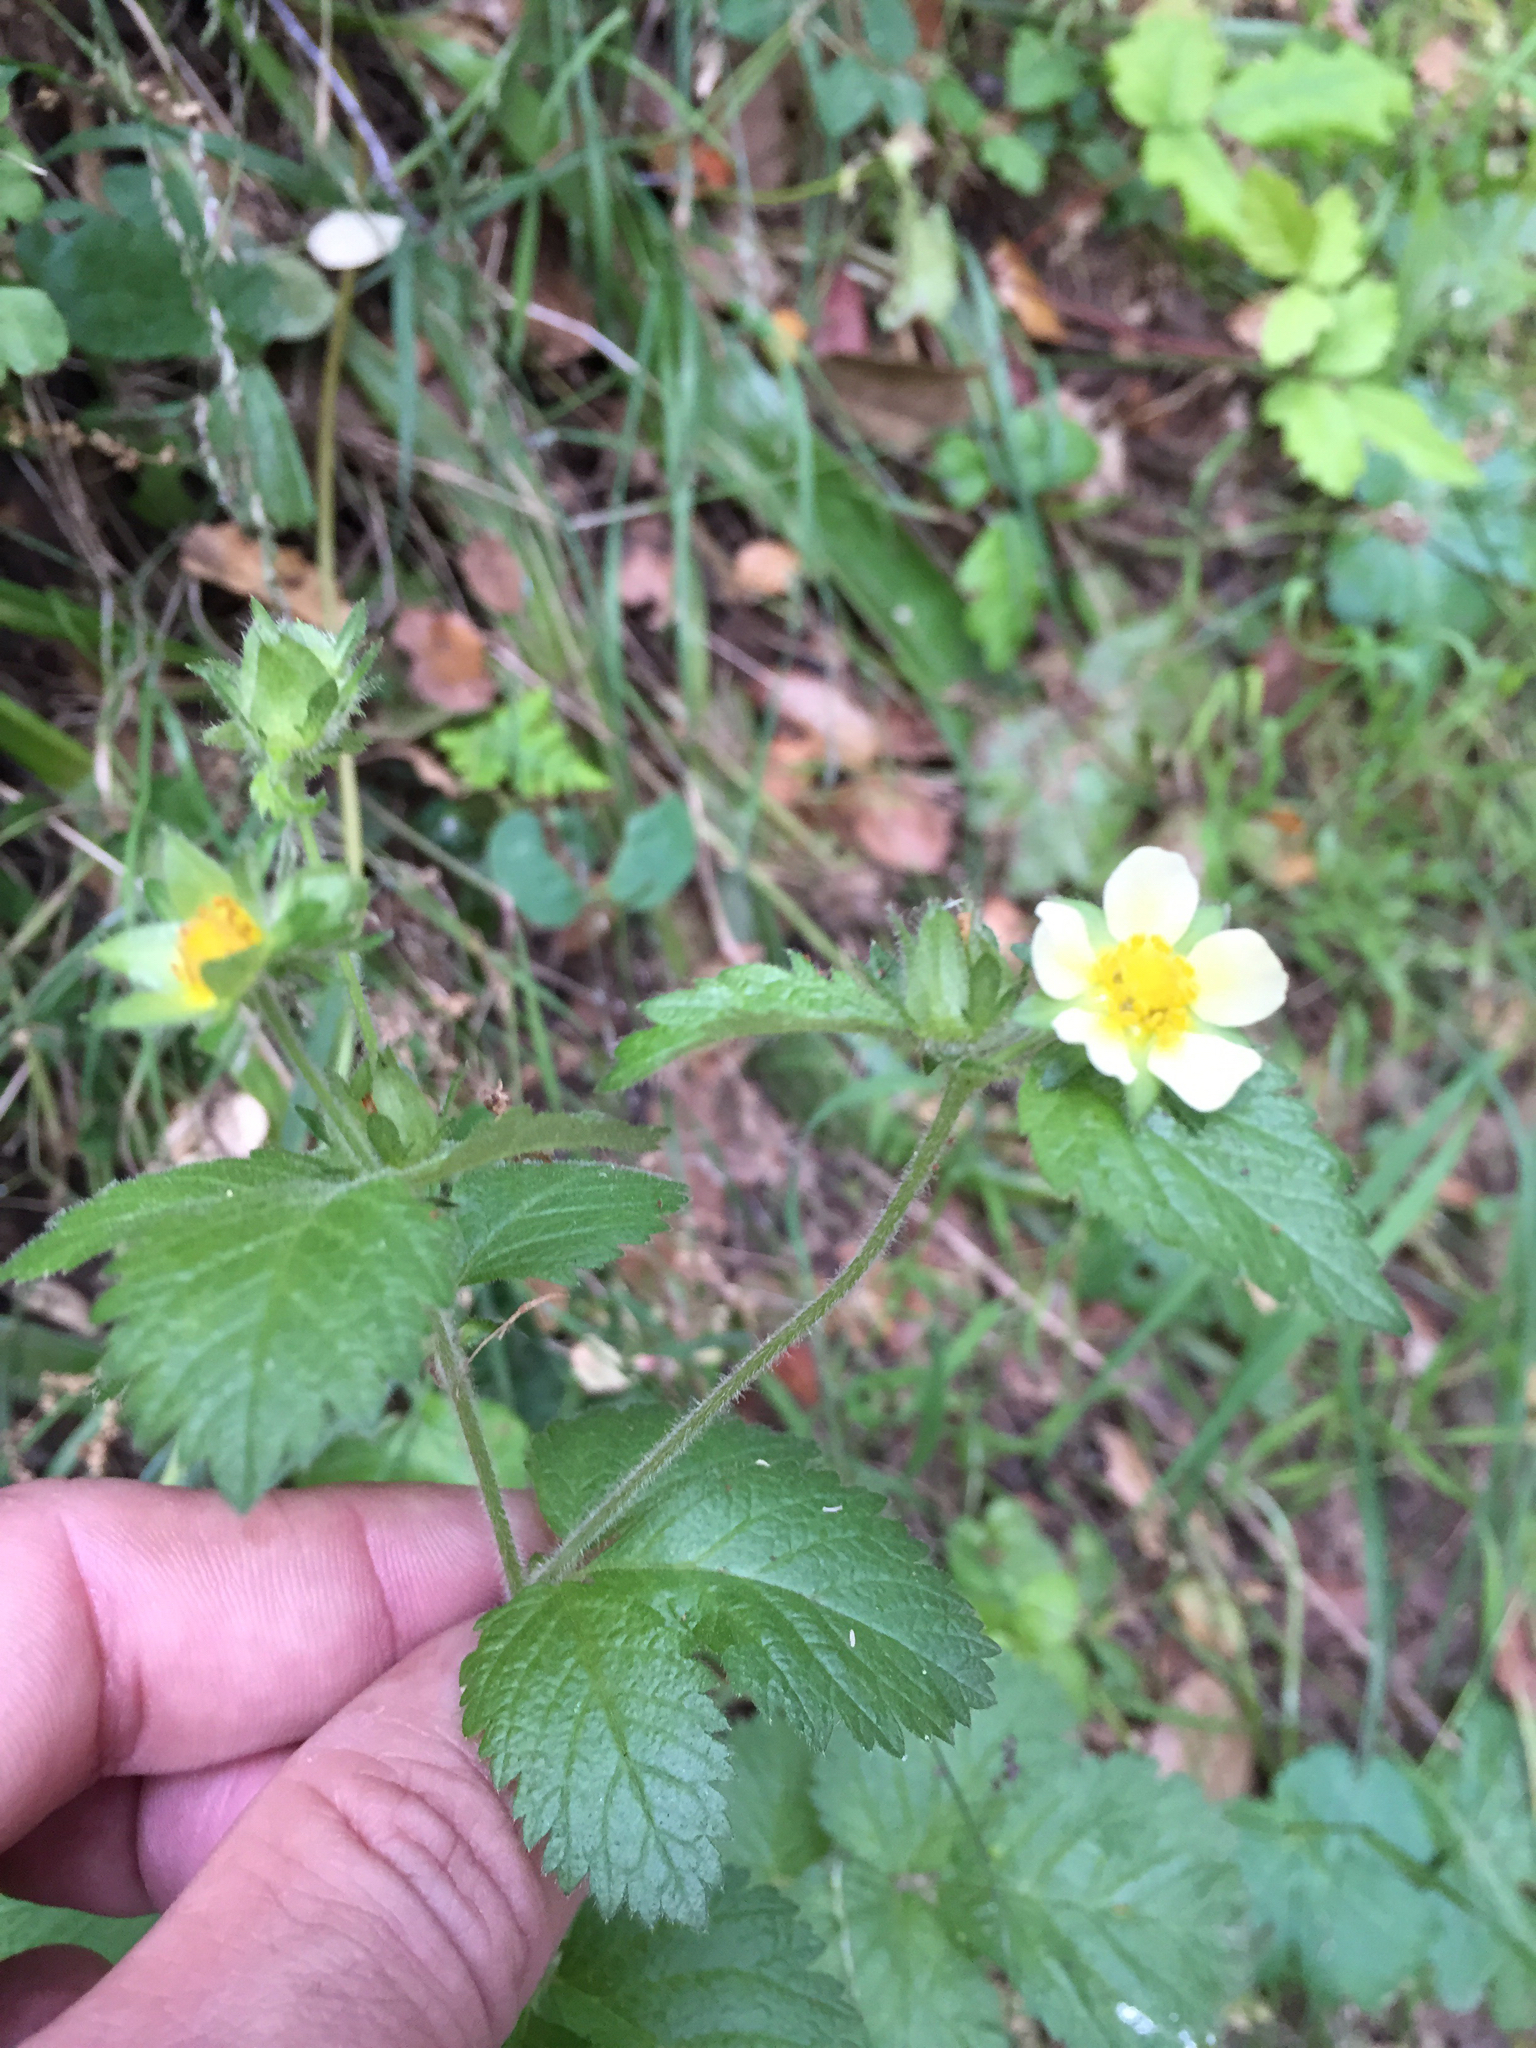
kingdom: Plantae
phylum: Tracheophyta
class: Magnoliopsida
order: Rosales
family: Rosaceae
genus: Drymocallis
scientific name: Drymocallis glandulosa
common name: Sticky cinquefoil
